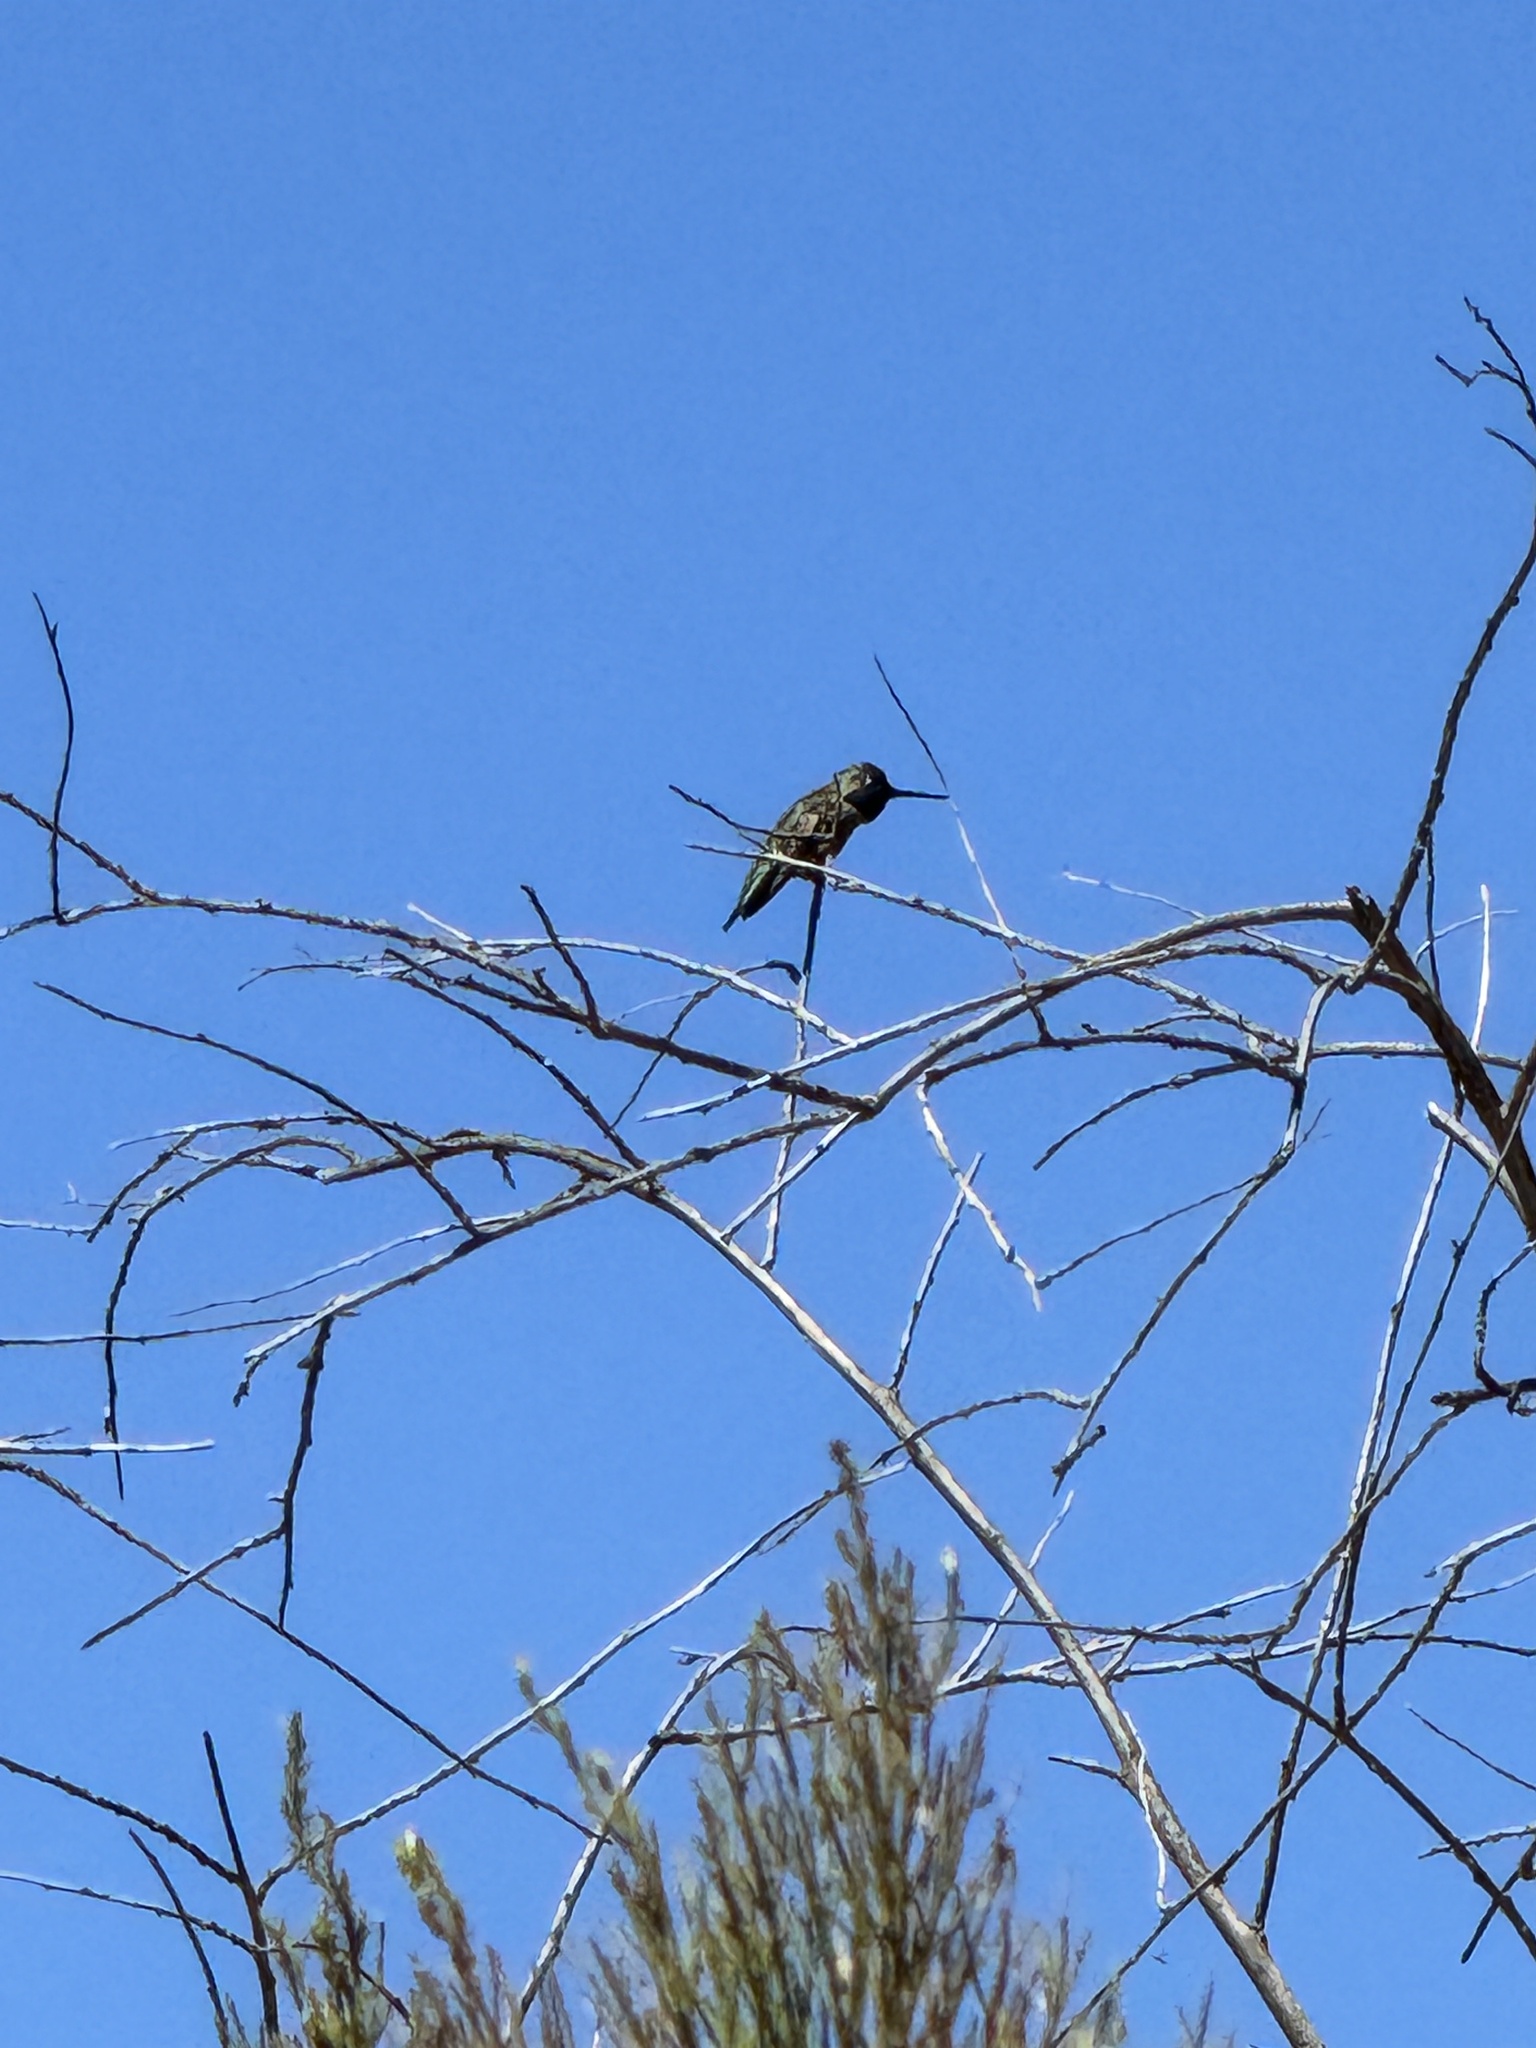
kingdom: Animalia
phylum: Chordata
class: Aves
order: Apodiformes
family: Trochilidae
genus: Calypte
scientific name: Calypte anna
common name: Anna's hummingbird
